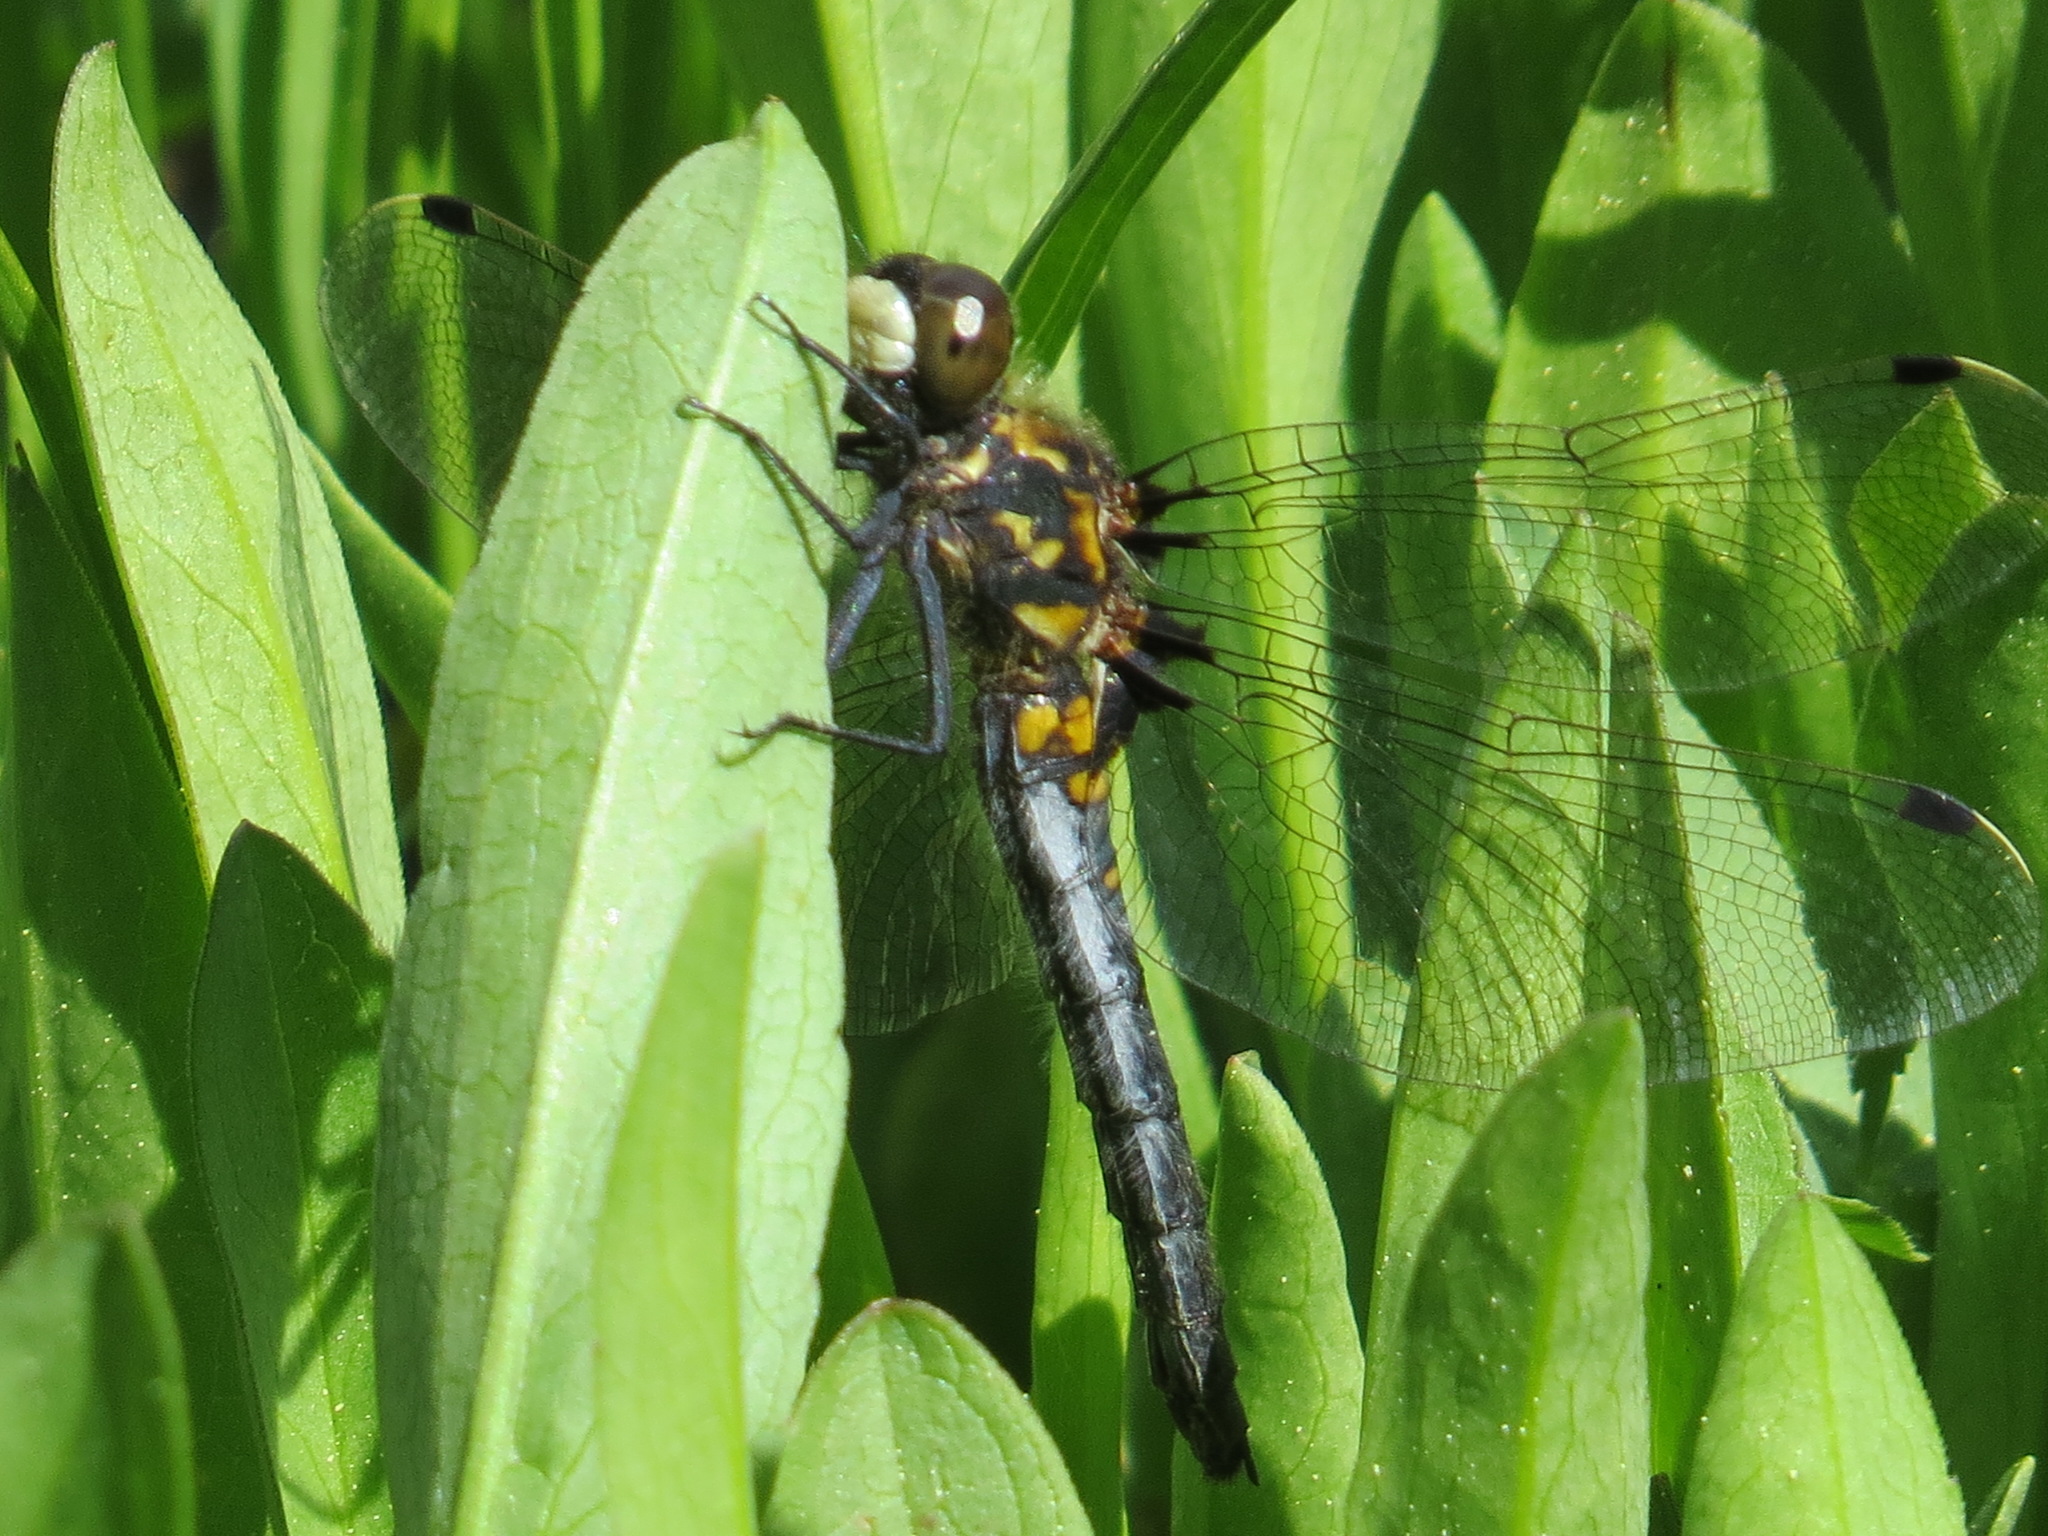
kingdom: Animalia
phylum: Arthropoda
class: Insecta
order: Odonata
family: Libellulidae
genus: Leucorrhinia
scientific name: Leucorrhinia hudsonica
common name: Hudsonian whiteface
